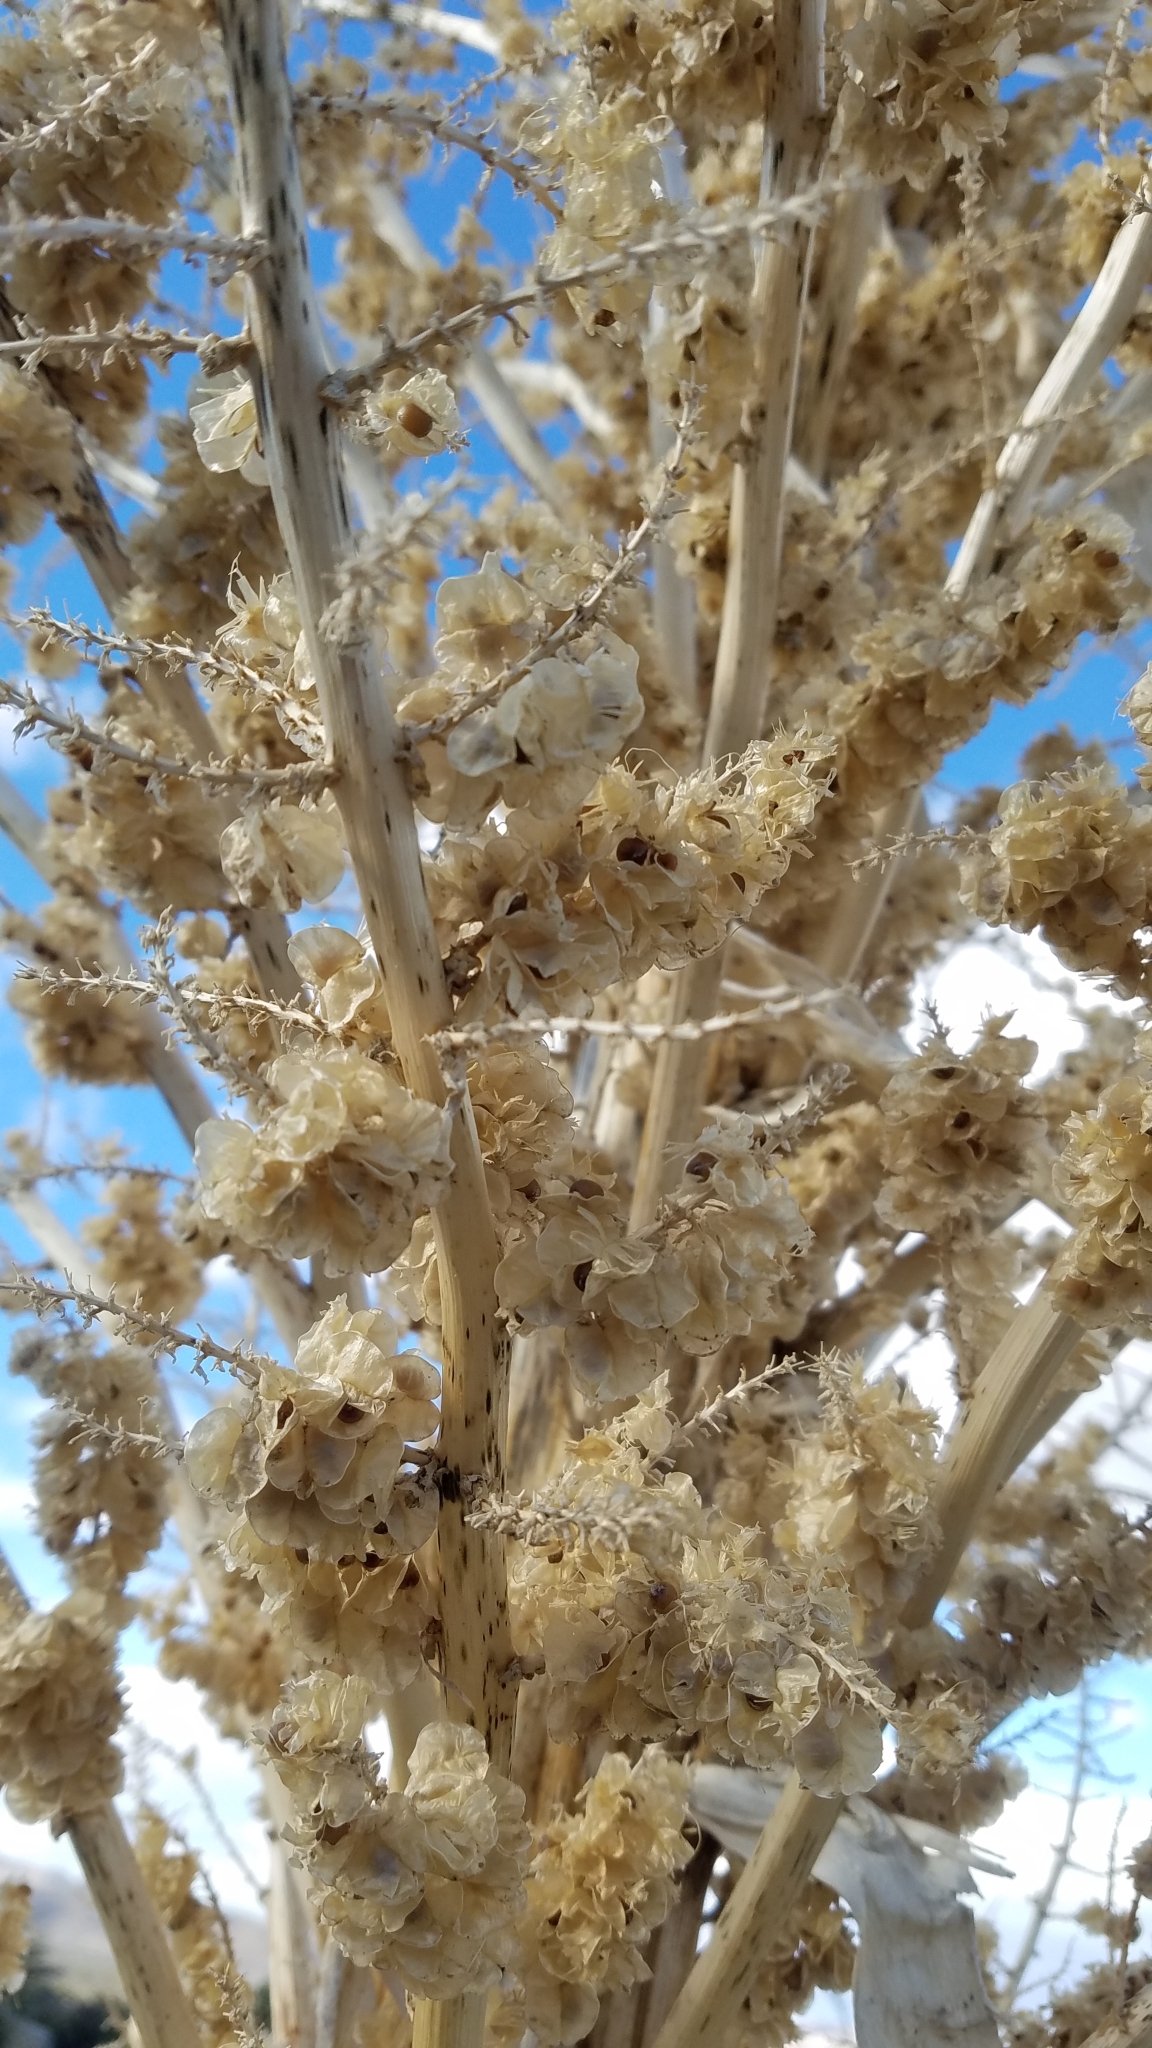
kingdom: Plantae
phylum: Tracheophyta
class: Liliopsida
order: Asparagales
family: Asparagaceae
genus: Nolina
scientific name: Nolina parryi
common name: Parry nolina
